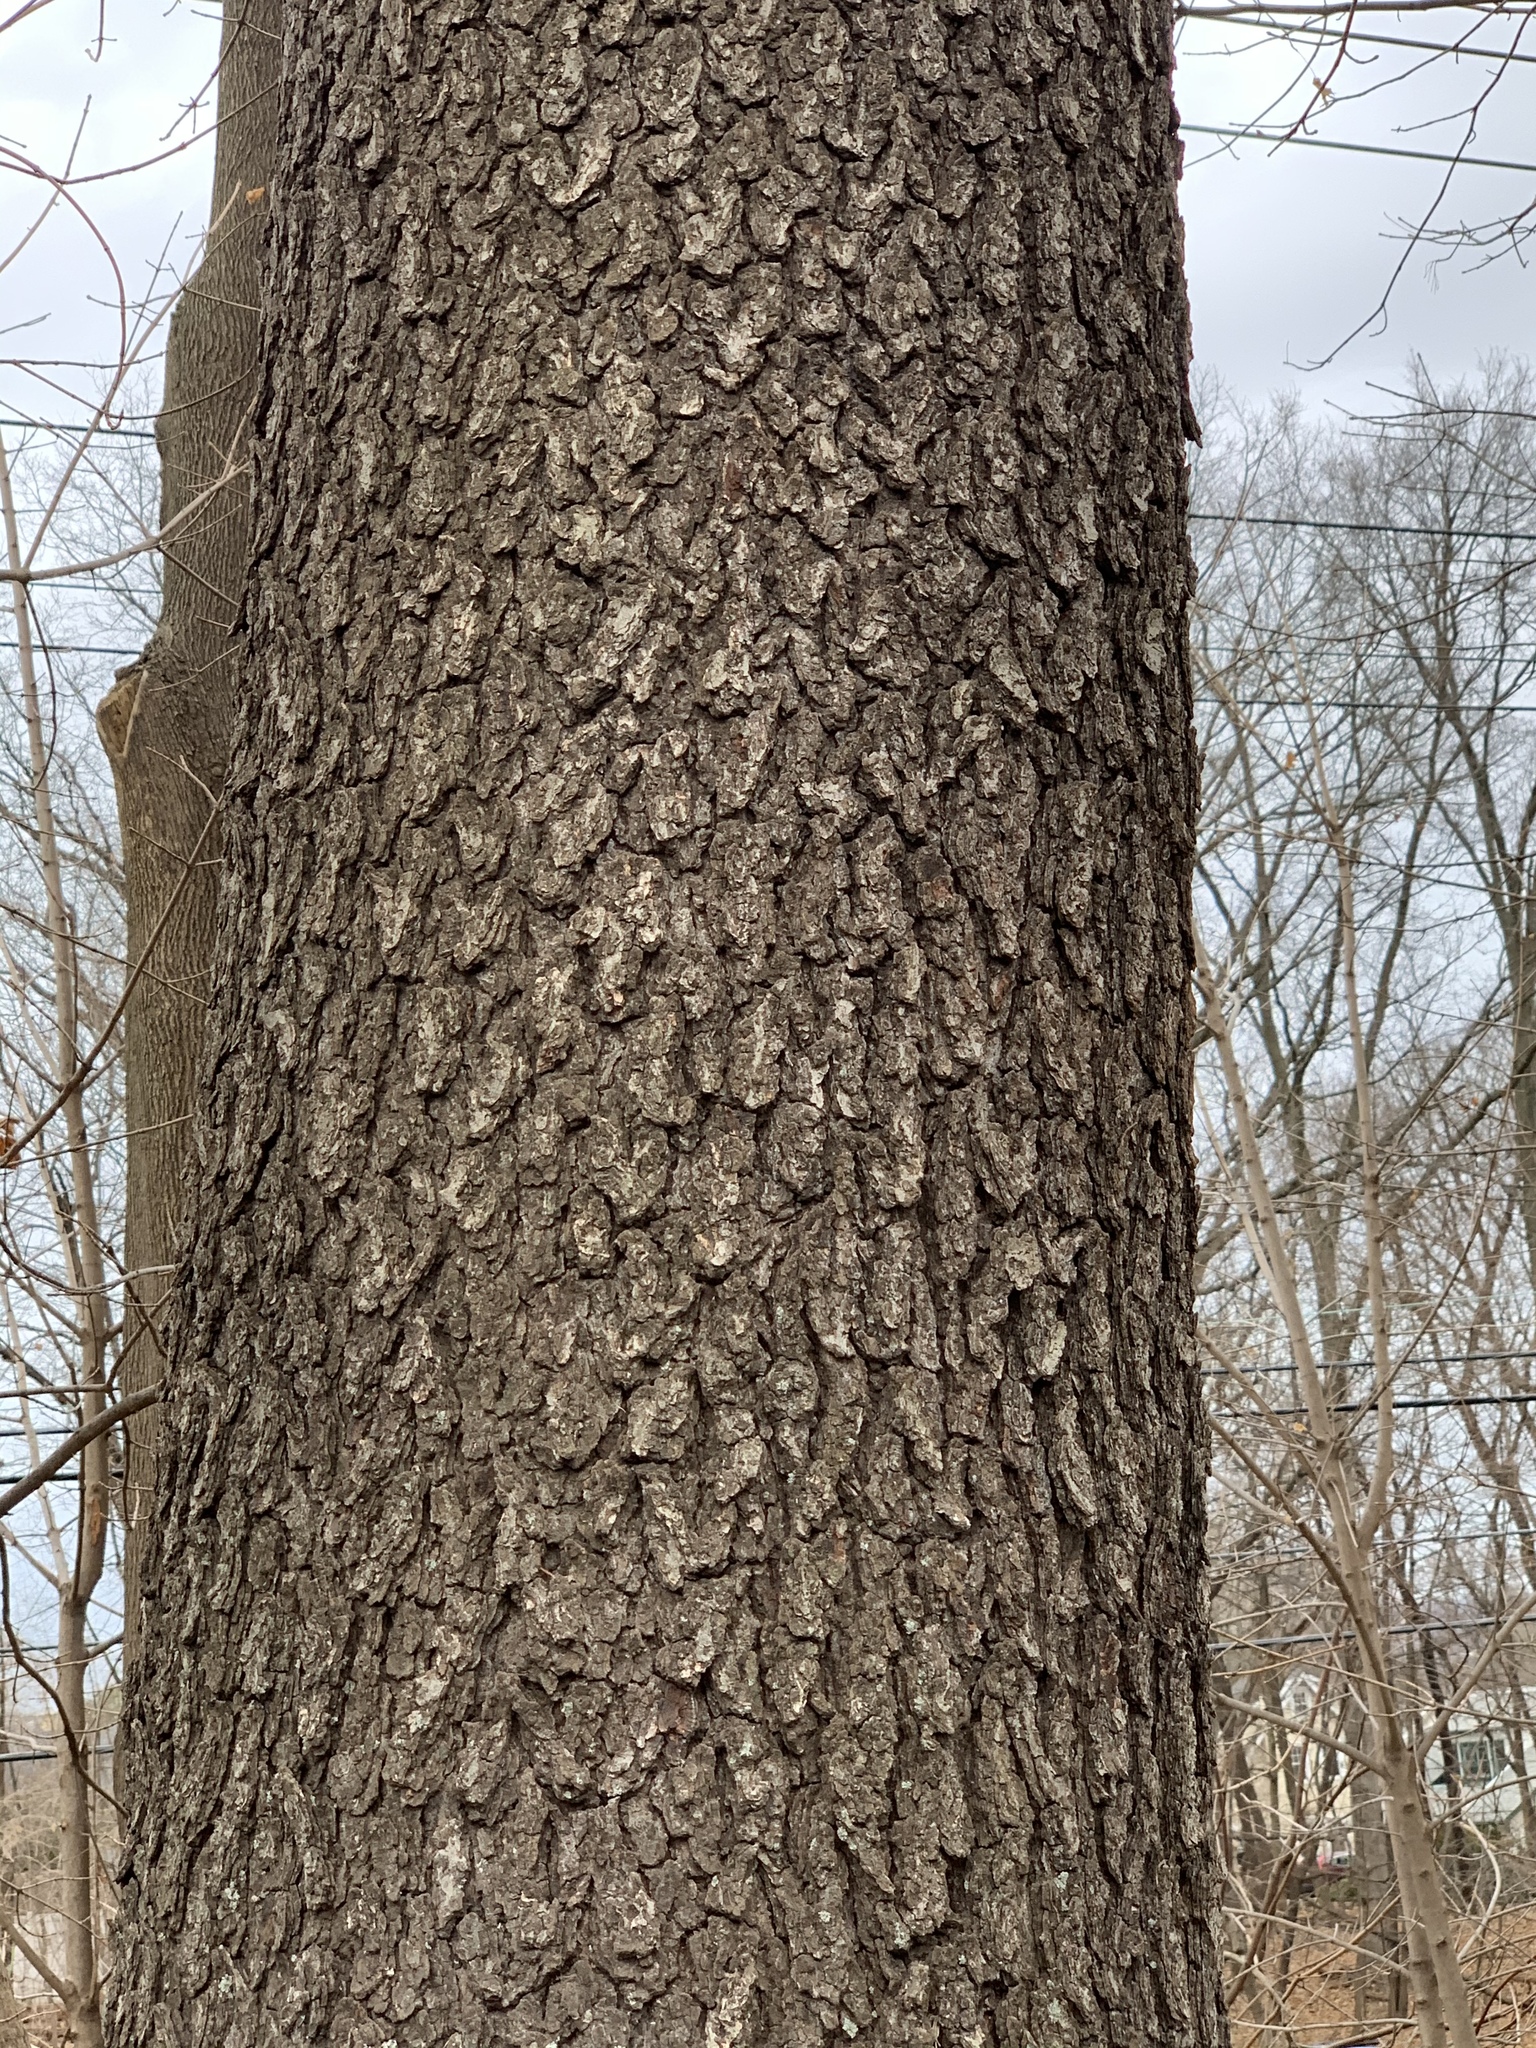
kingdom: Plantae
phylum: Tracheophyta
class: Magnoliopsida
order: Rosales
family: Rosaceae
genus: Prunus
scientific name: Prunus serotina
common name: Black cherry
